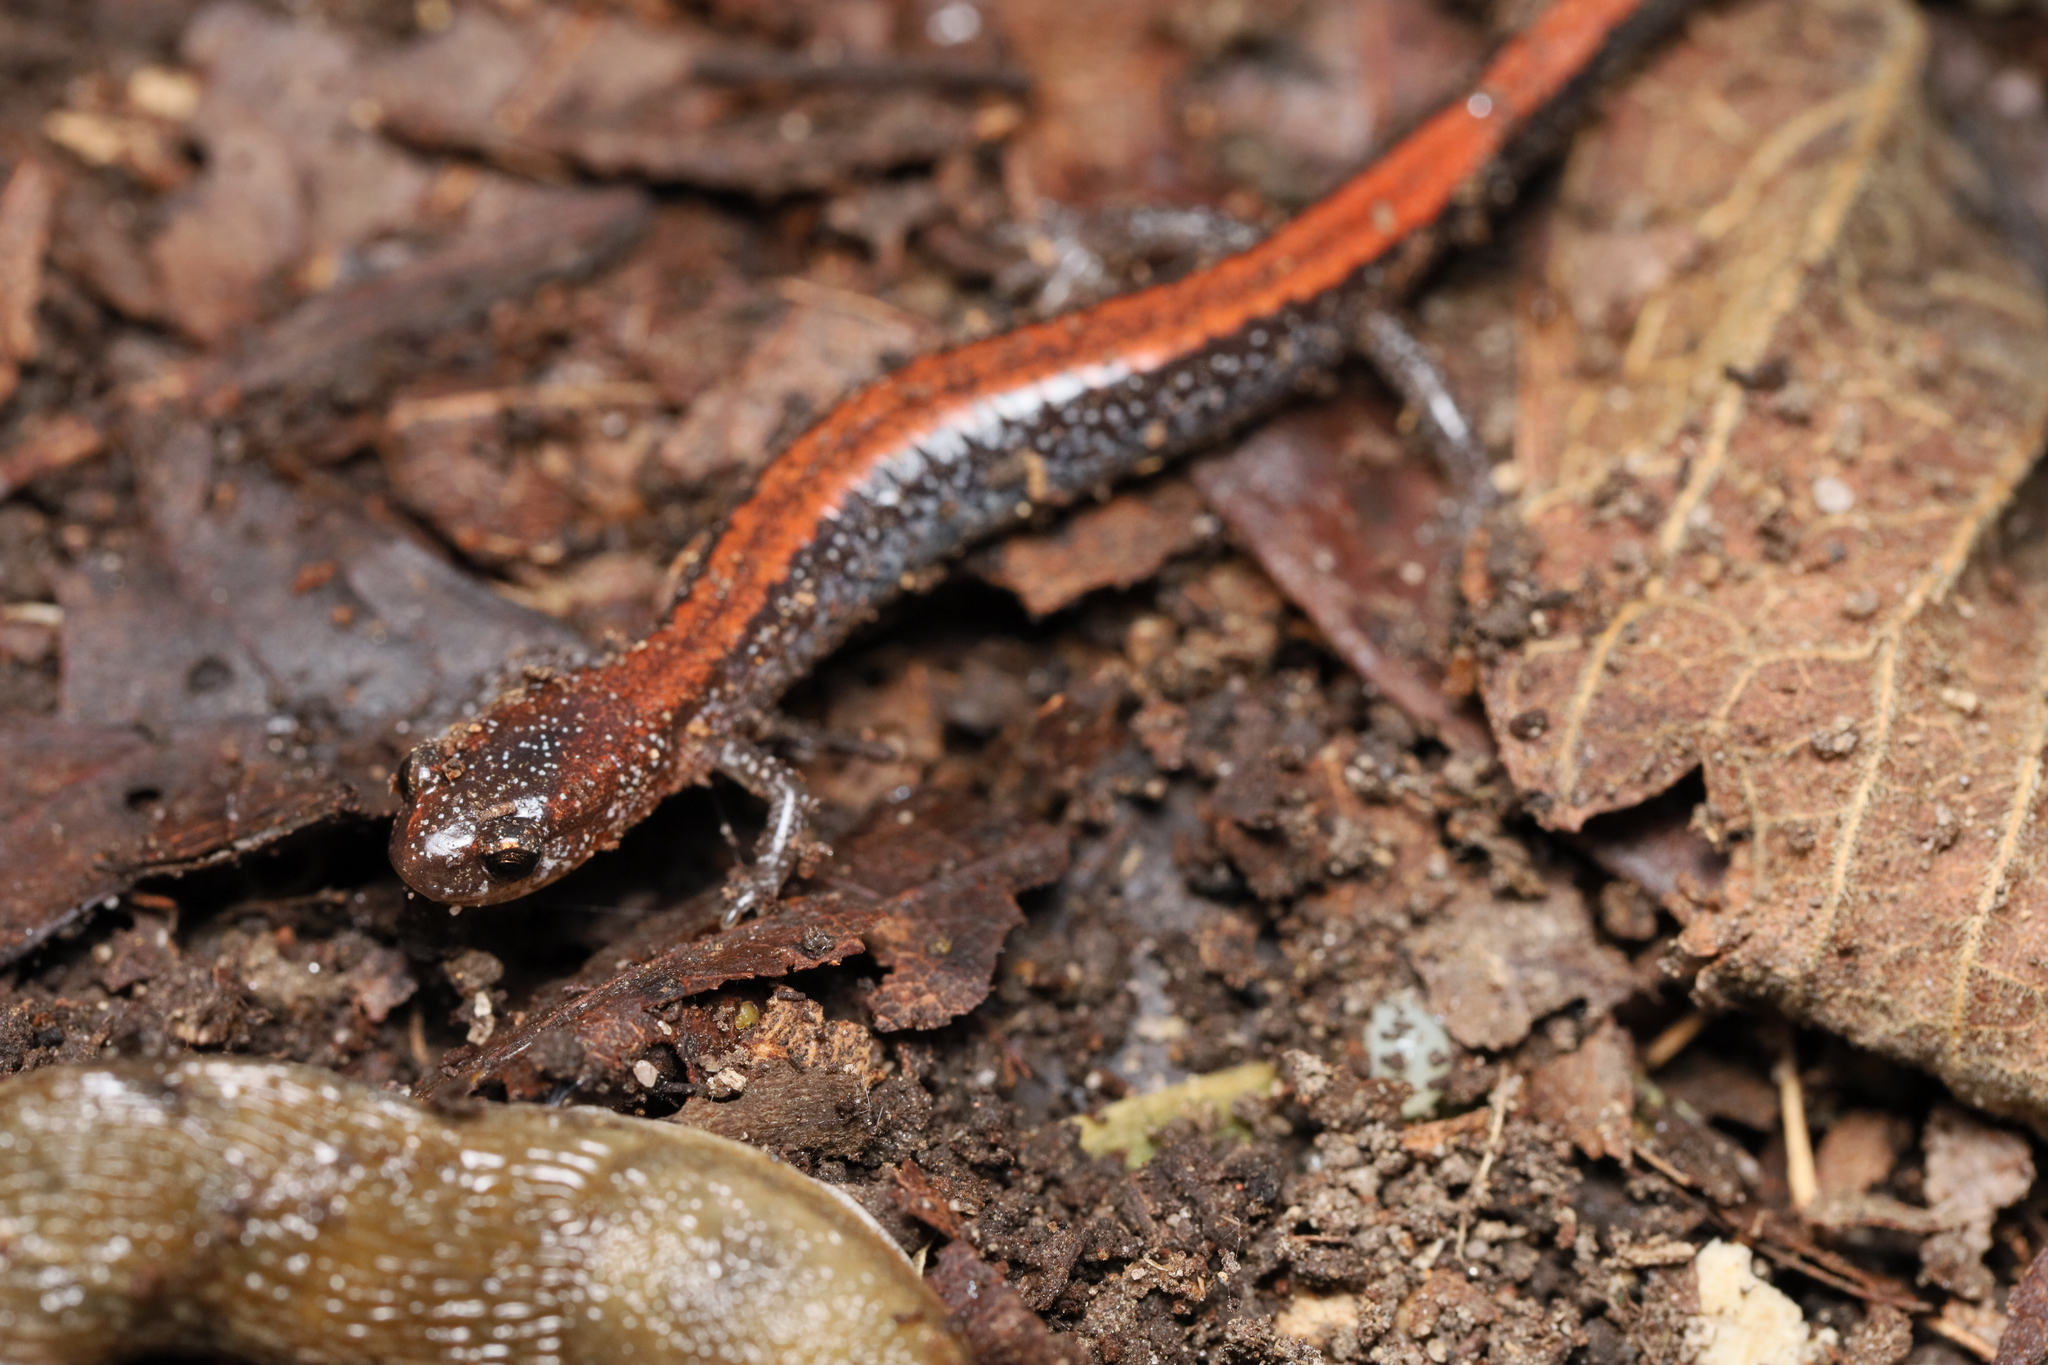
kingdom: Animalia
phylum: Chordata
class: Amphibia
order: Caudata
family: Plethodontidae
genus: Plethodon
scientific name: Plethodon cinereus
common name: Redback salamander
